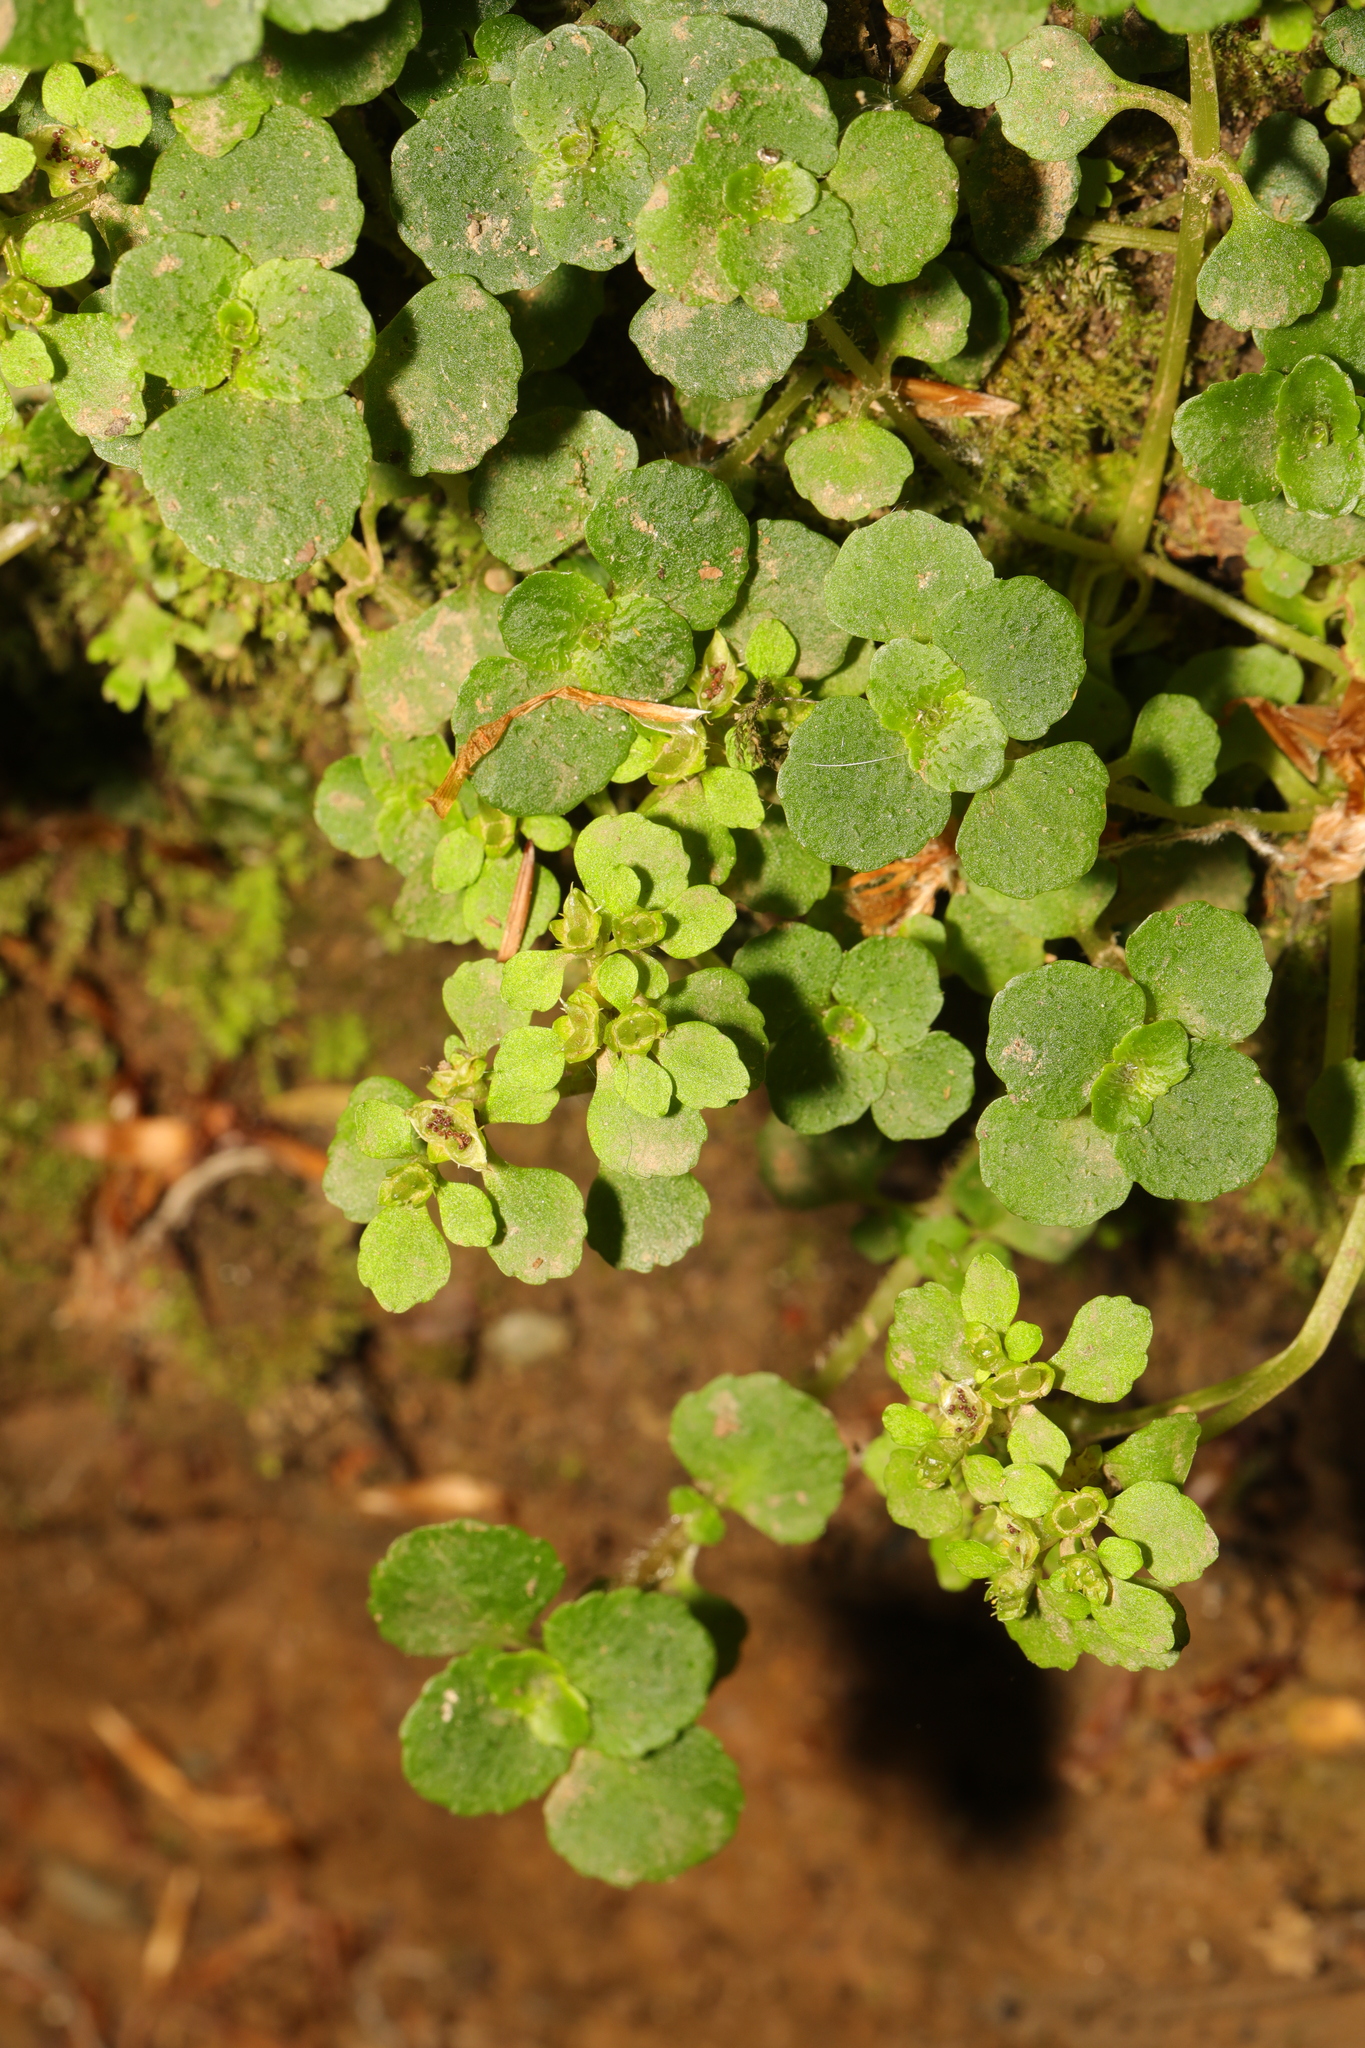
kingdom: Plantae
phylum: Tracheophyta
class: Magnoliopsida
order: Saxifragales
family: Saxifragaceae
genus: Chrysosplenium
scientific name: Chrysosplenium oppositifolium
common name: Opposite-leaved golden-saxifrage
